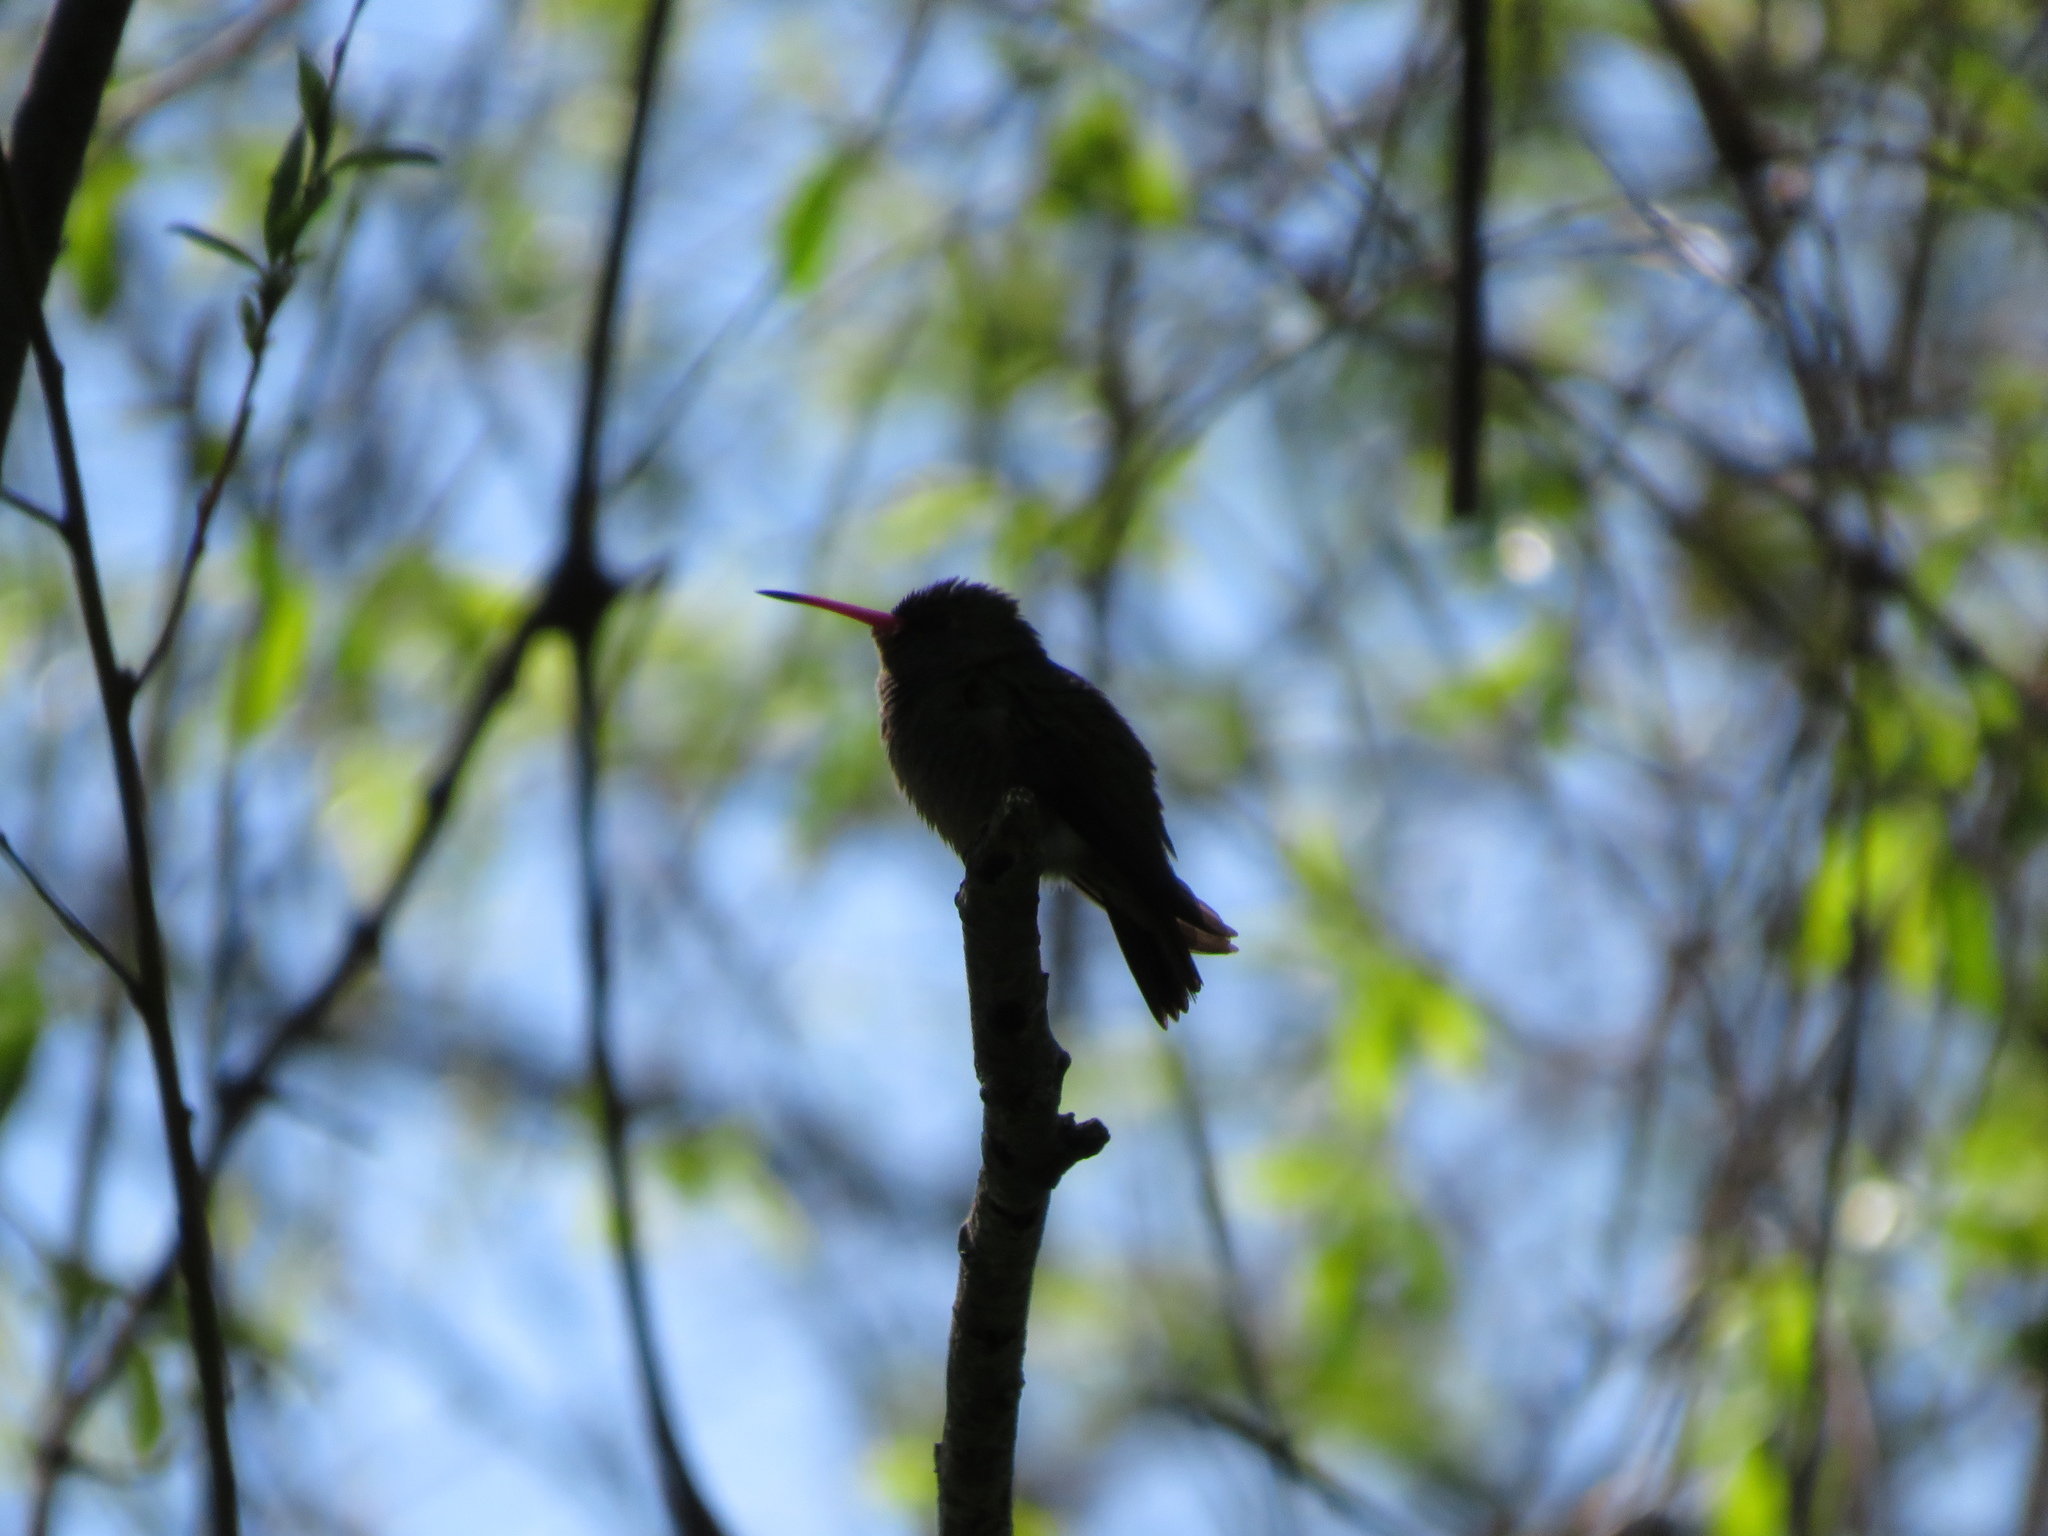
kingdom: Animalia
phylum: Chordata
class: Aves
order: Apodiformes
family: Trochilidae
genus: Hylocharis
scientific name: Hylocharis chrysura
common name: Gilded sapphire
